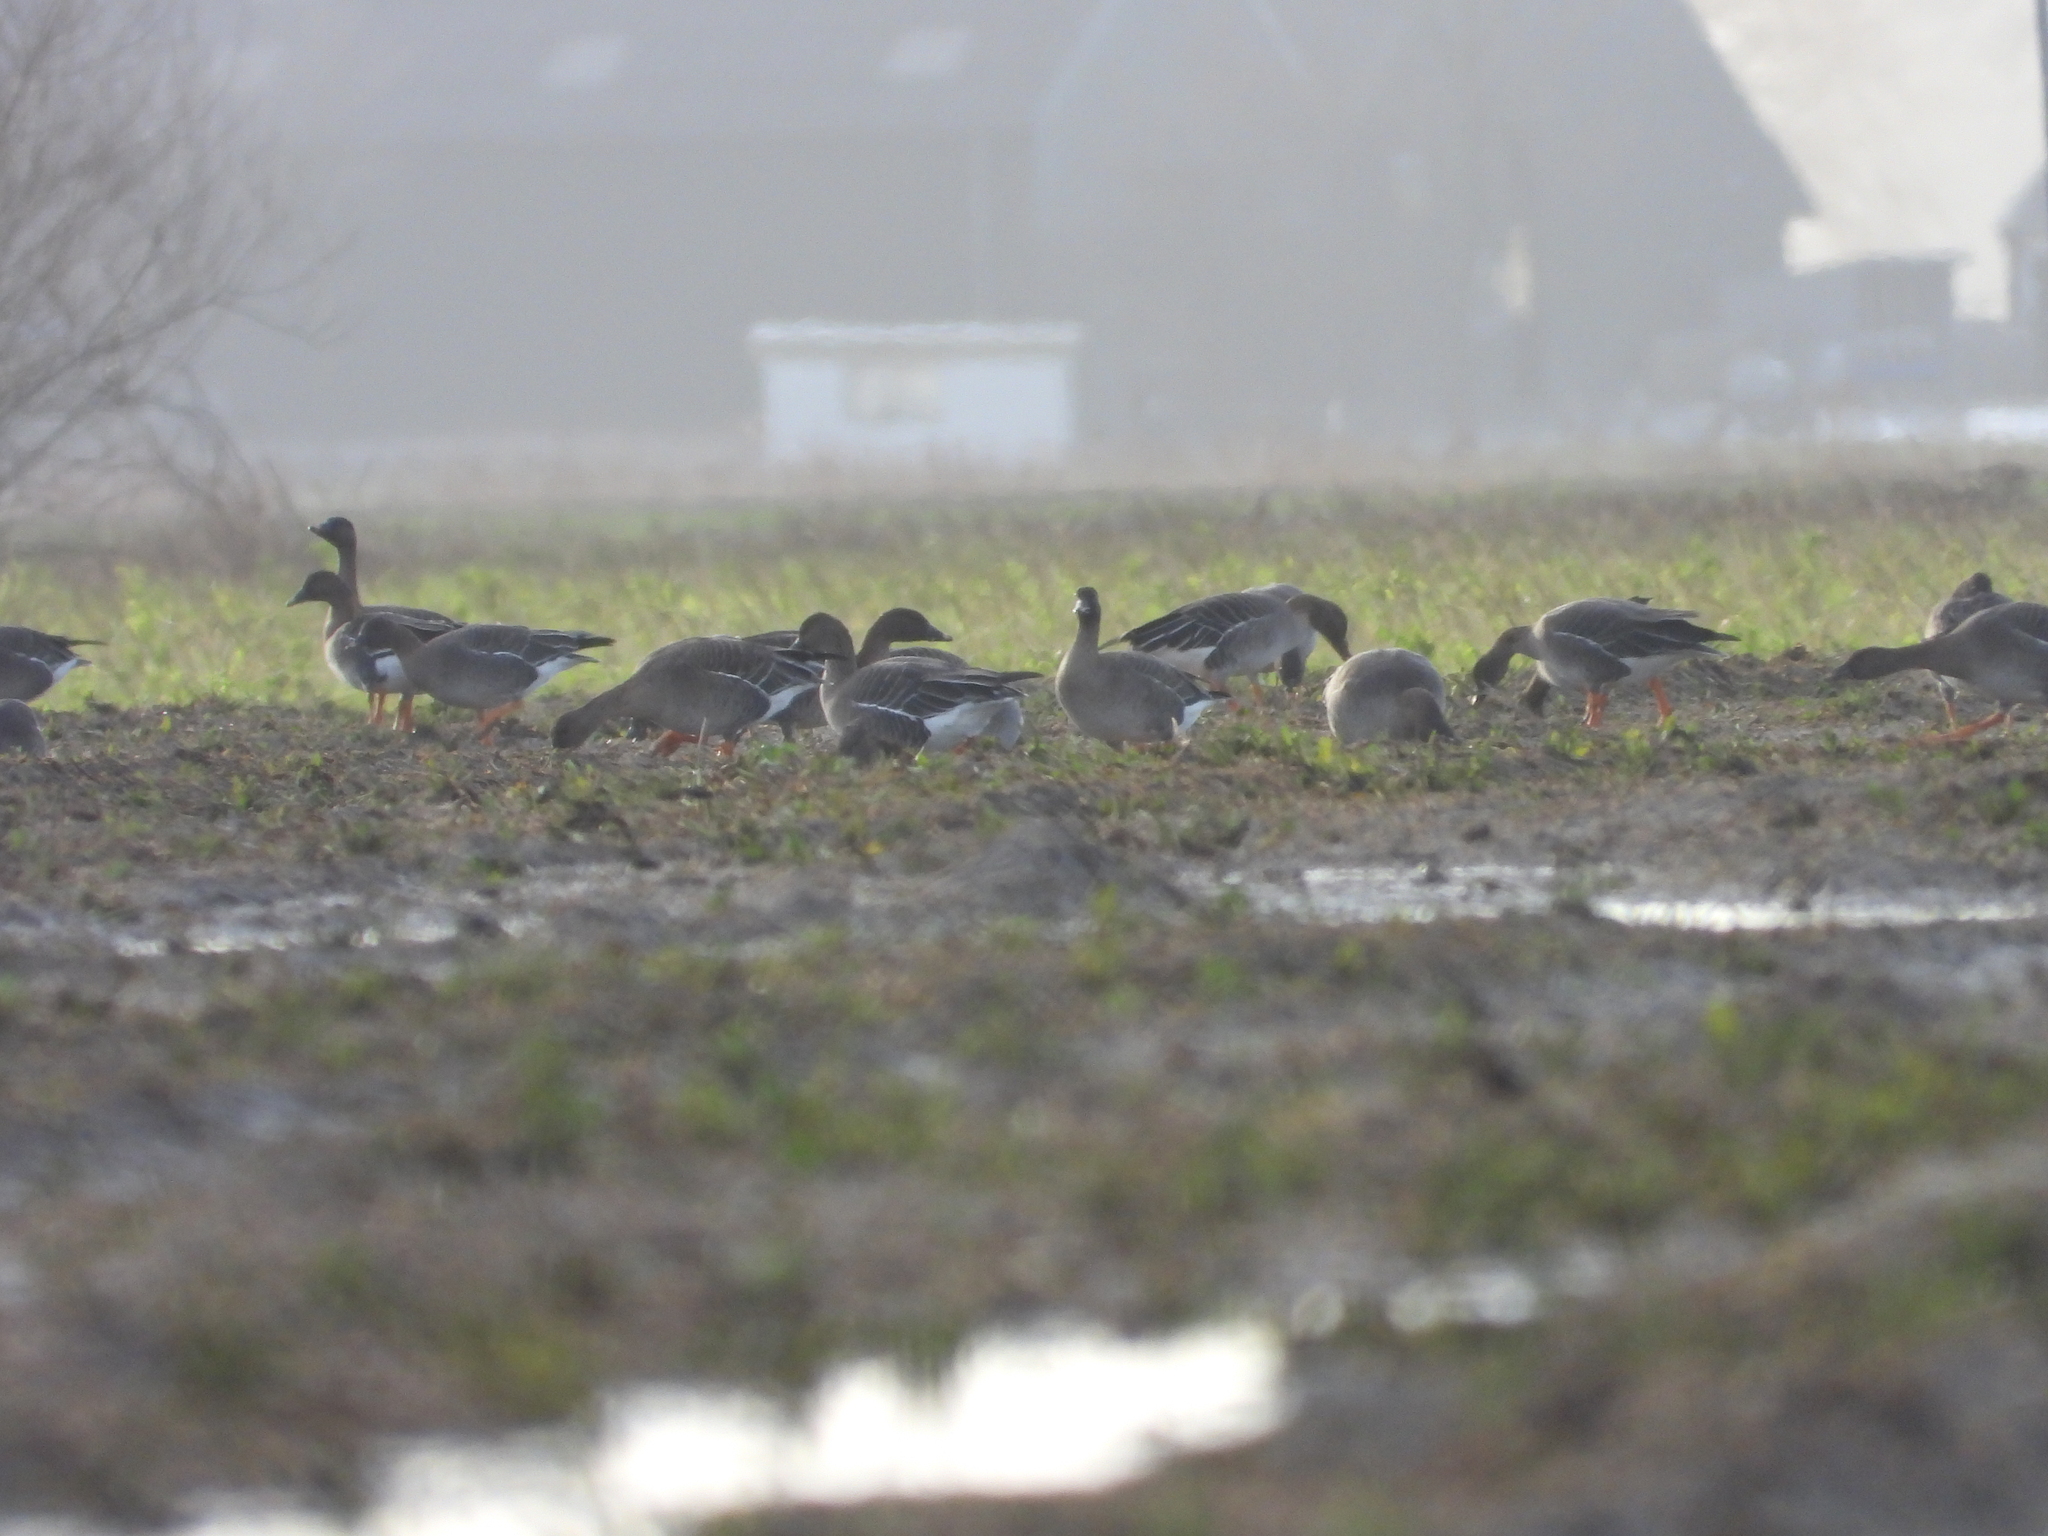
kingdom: Animalia
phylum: Chordata
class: Aves
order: Anseriformes
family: Anatidae
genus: Anser
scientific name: Anser serrirostris
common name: Tundra bean goose
